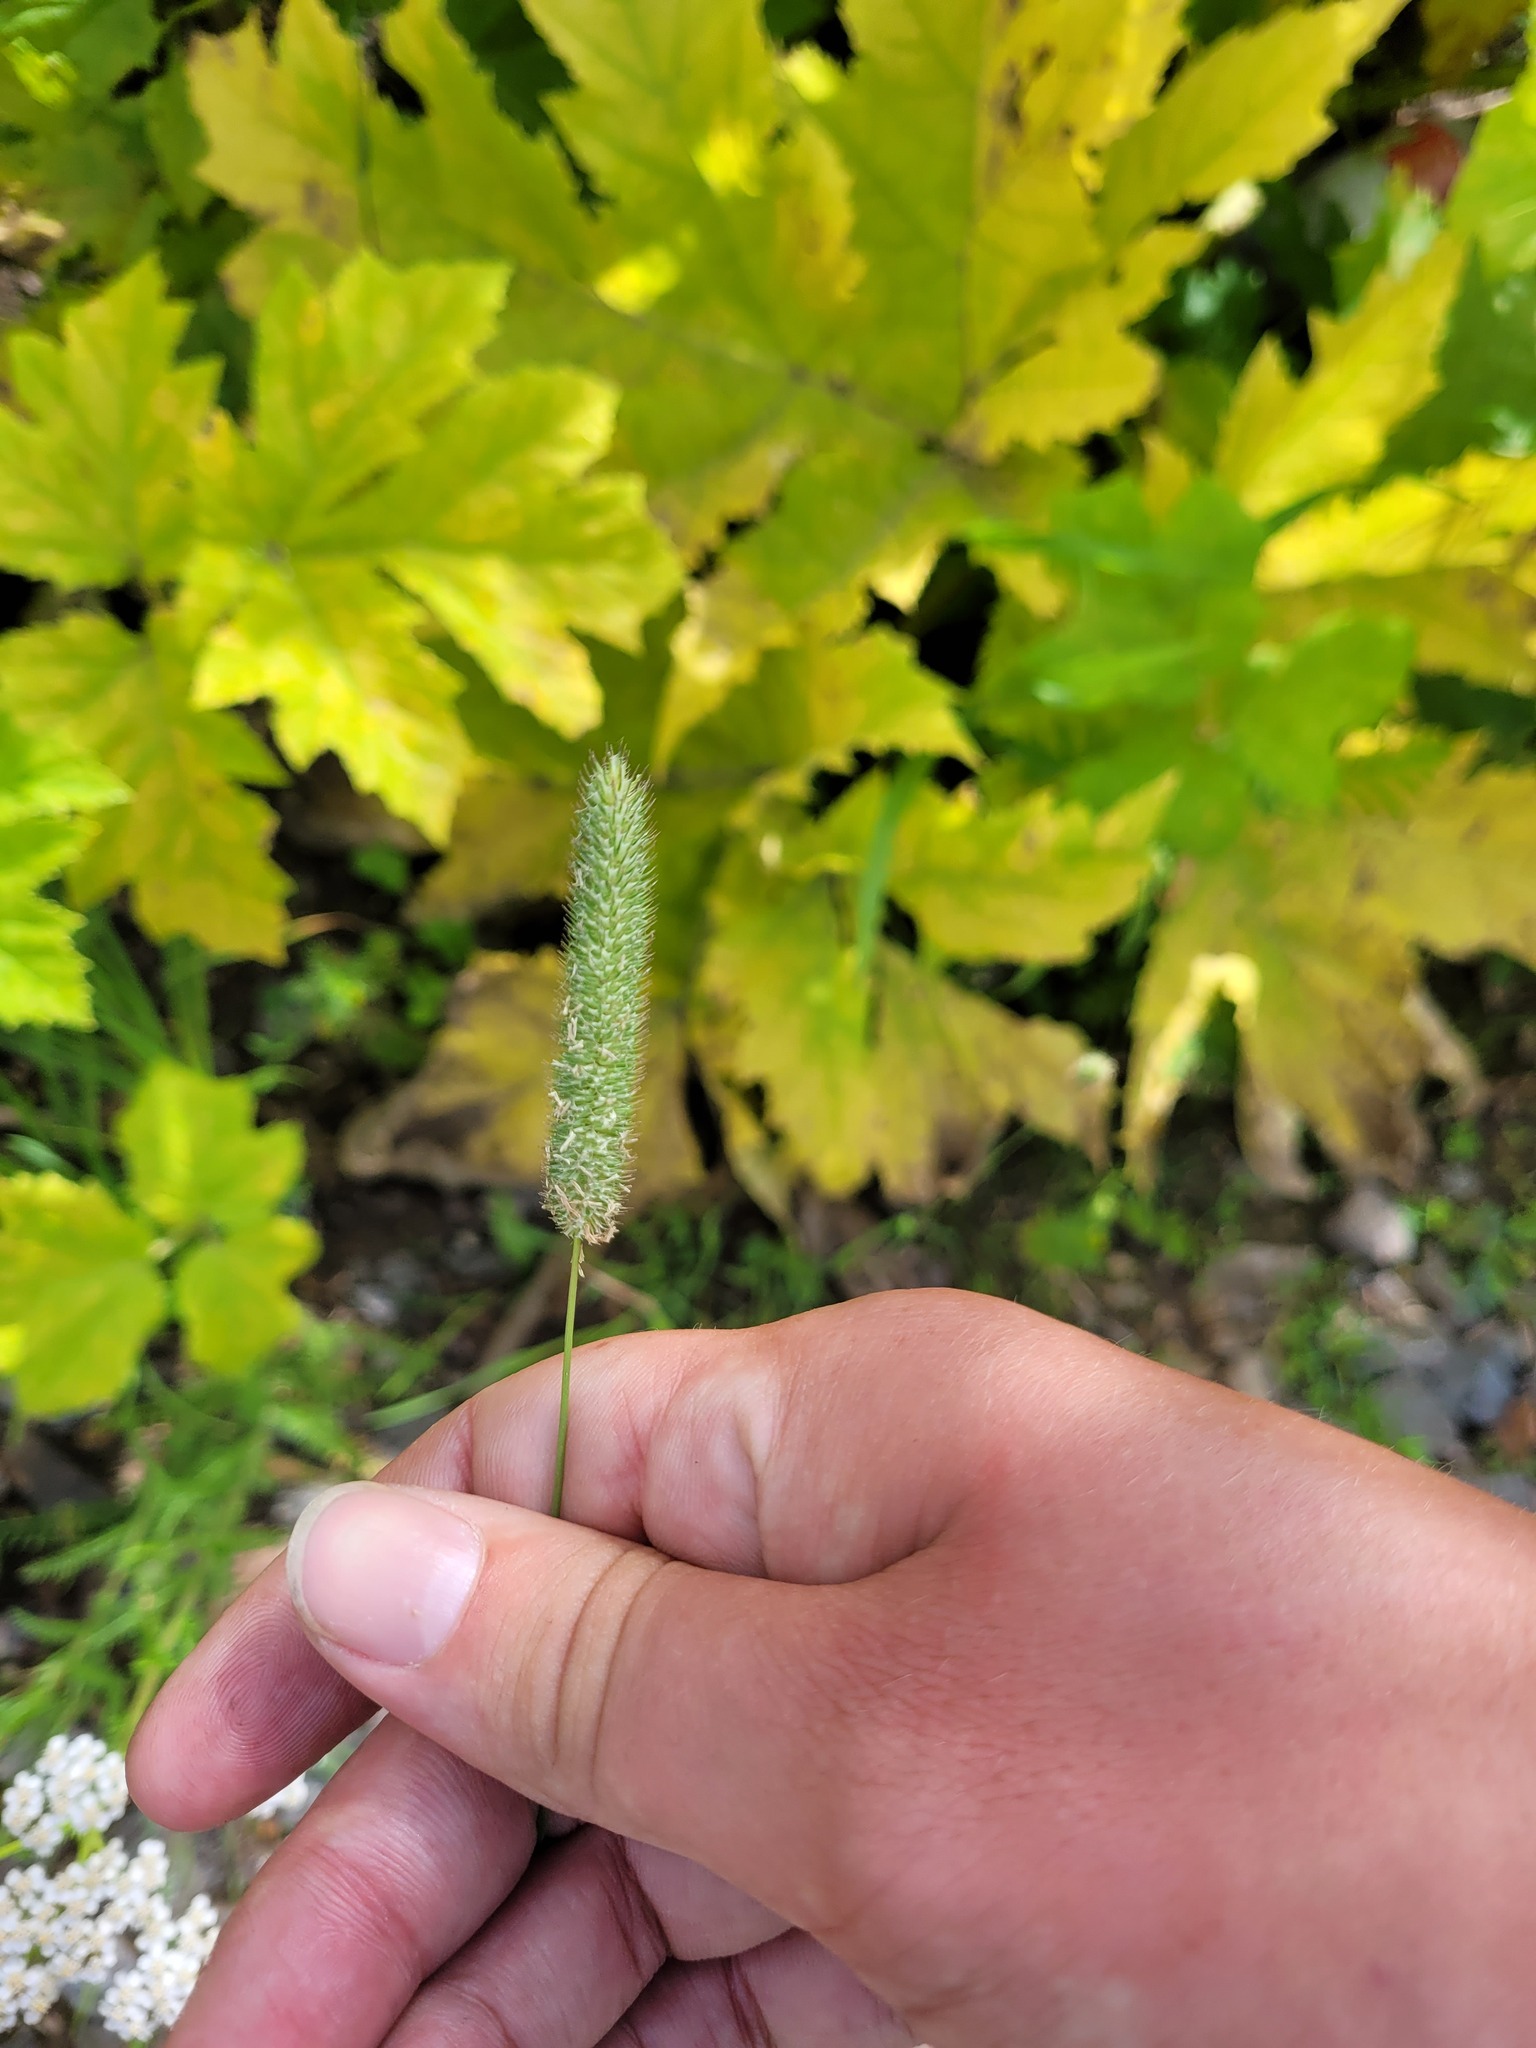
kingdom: Plantae
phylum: Tracheophyta
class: Liliopsida
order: Poales
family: Poaceae
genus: Phleum
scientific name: Phleum pratense
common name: Timothy grass
